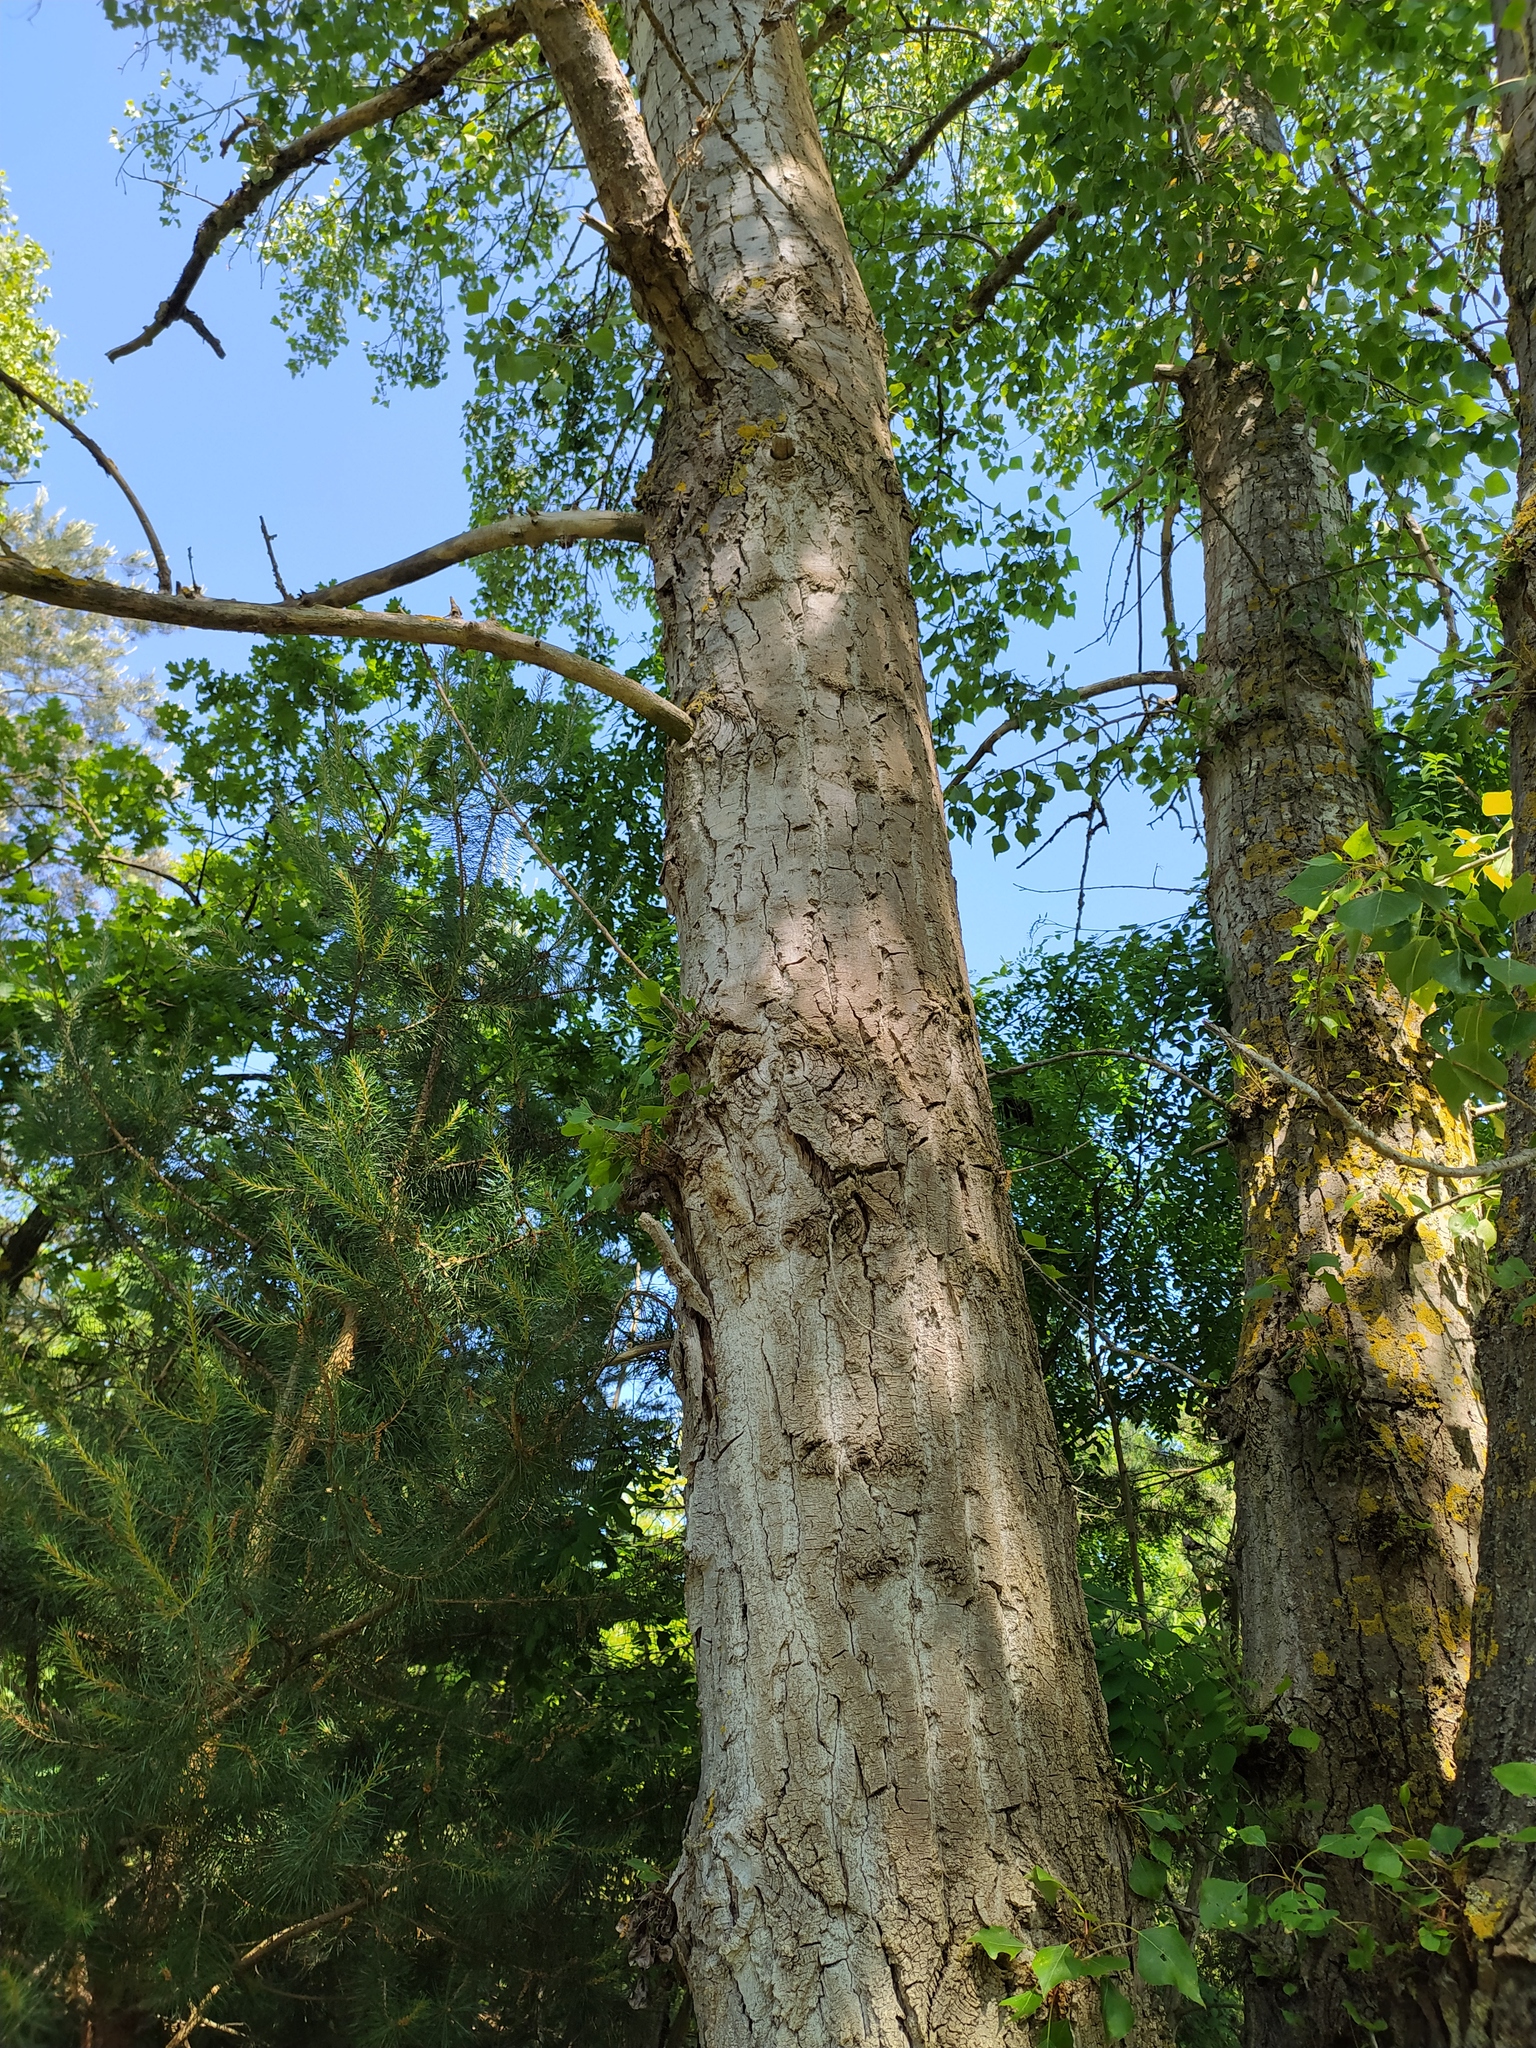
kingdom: Plantae
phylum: Tracheophyta
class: Magnoliopsida
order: Malpighiales
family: Salicaceae
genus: Populus
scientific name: Populus nigra
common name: Black poplar
